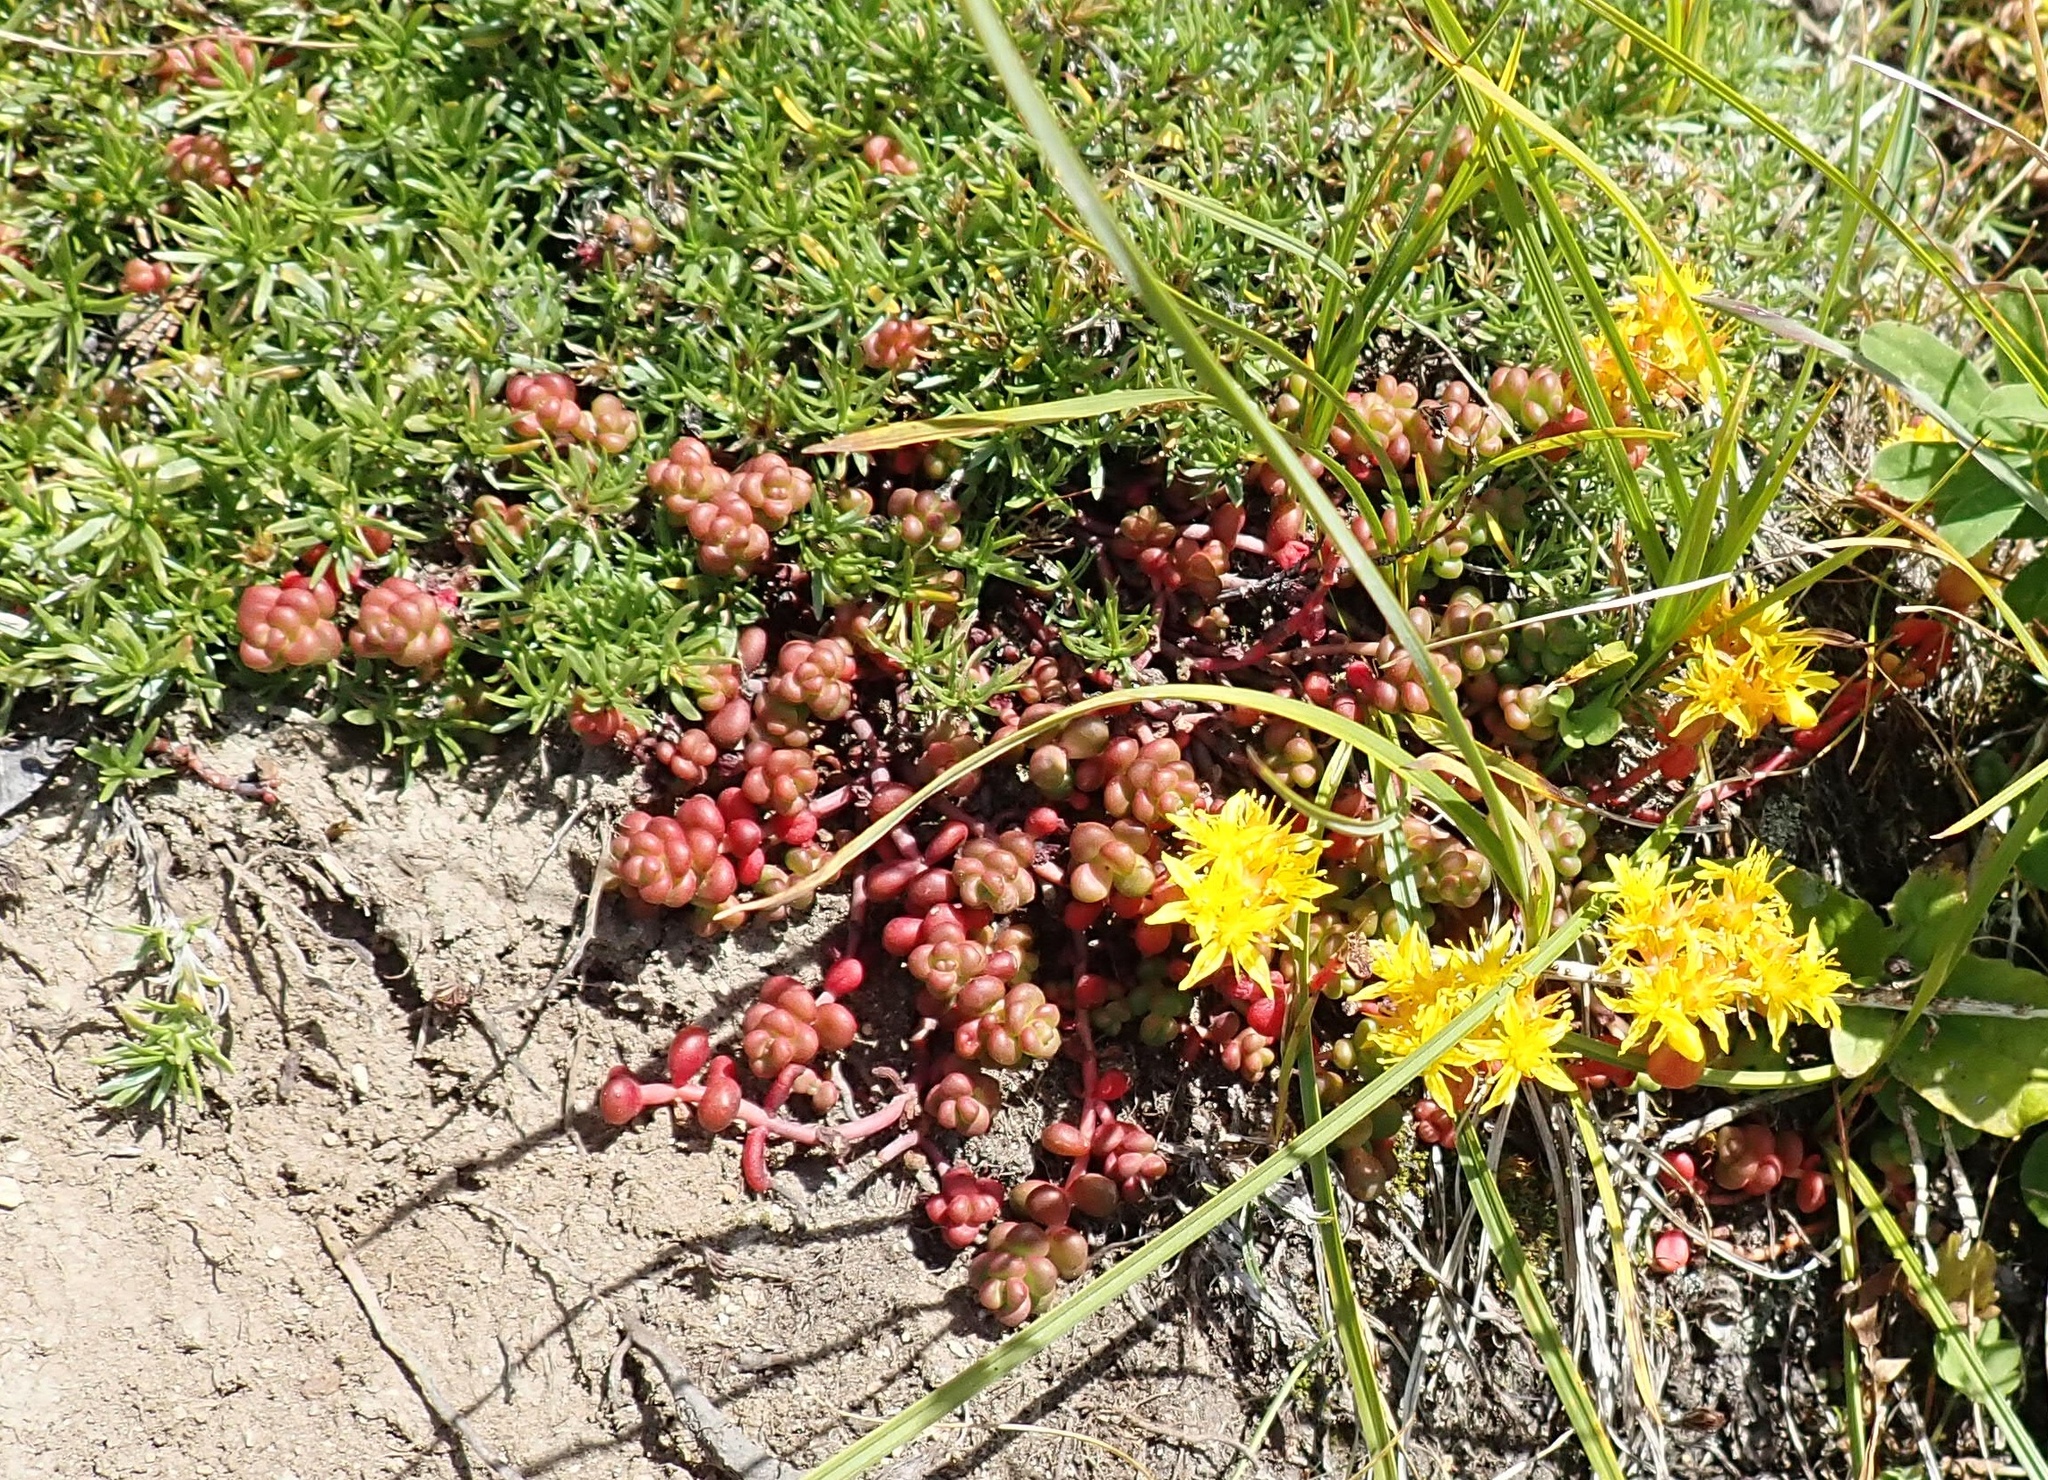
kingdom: Plantae
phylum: Tracheophyta
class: Magnoliopsida
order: Saxifragales
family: Crassulaceae
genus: Sedum
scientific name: Sedum divergens
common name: Cascade stonecrop
